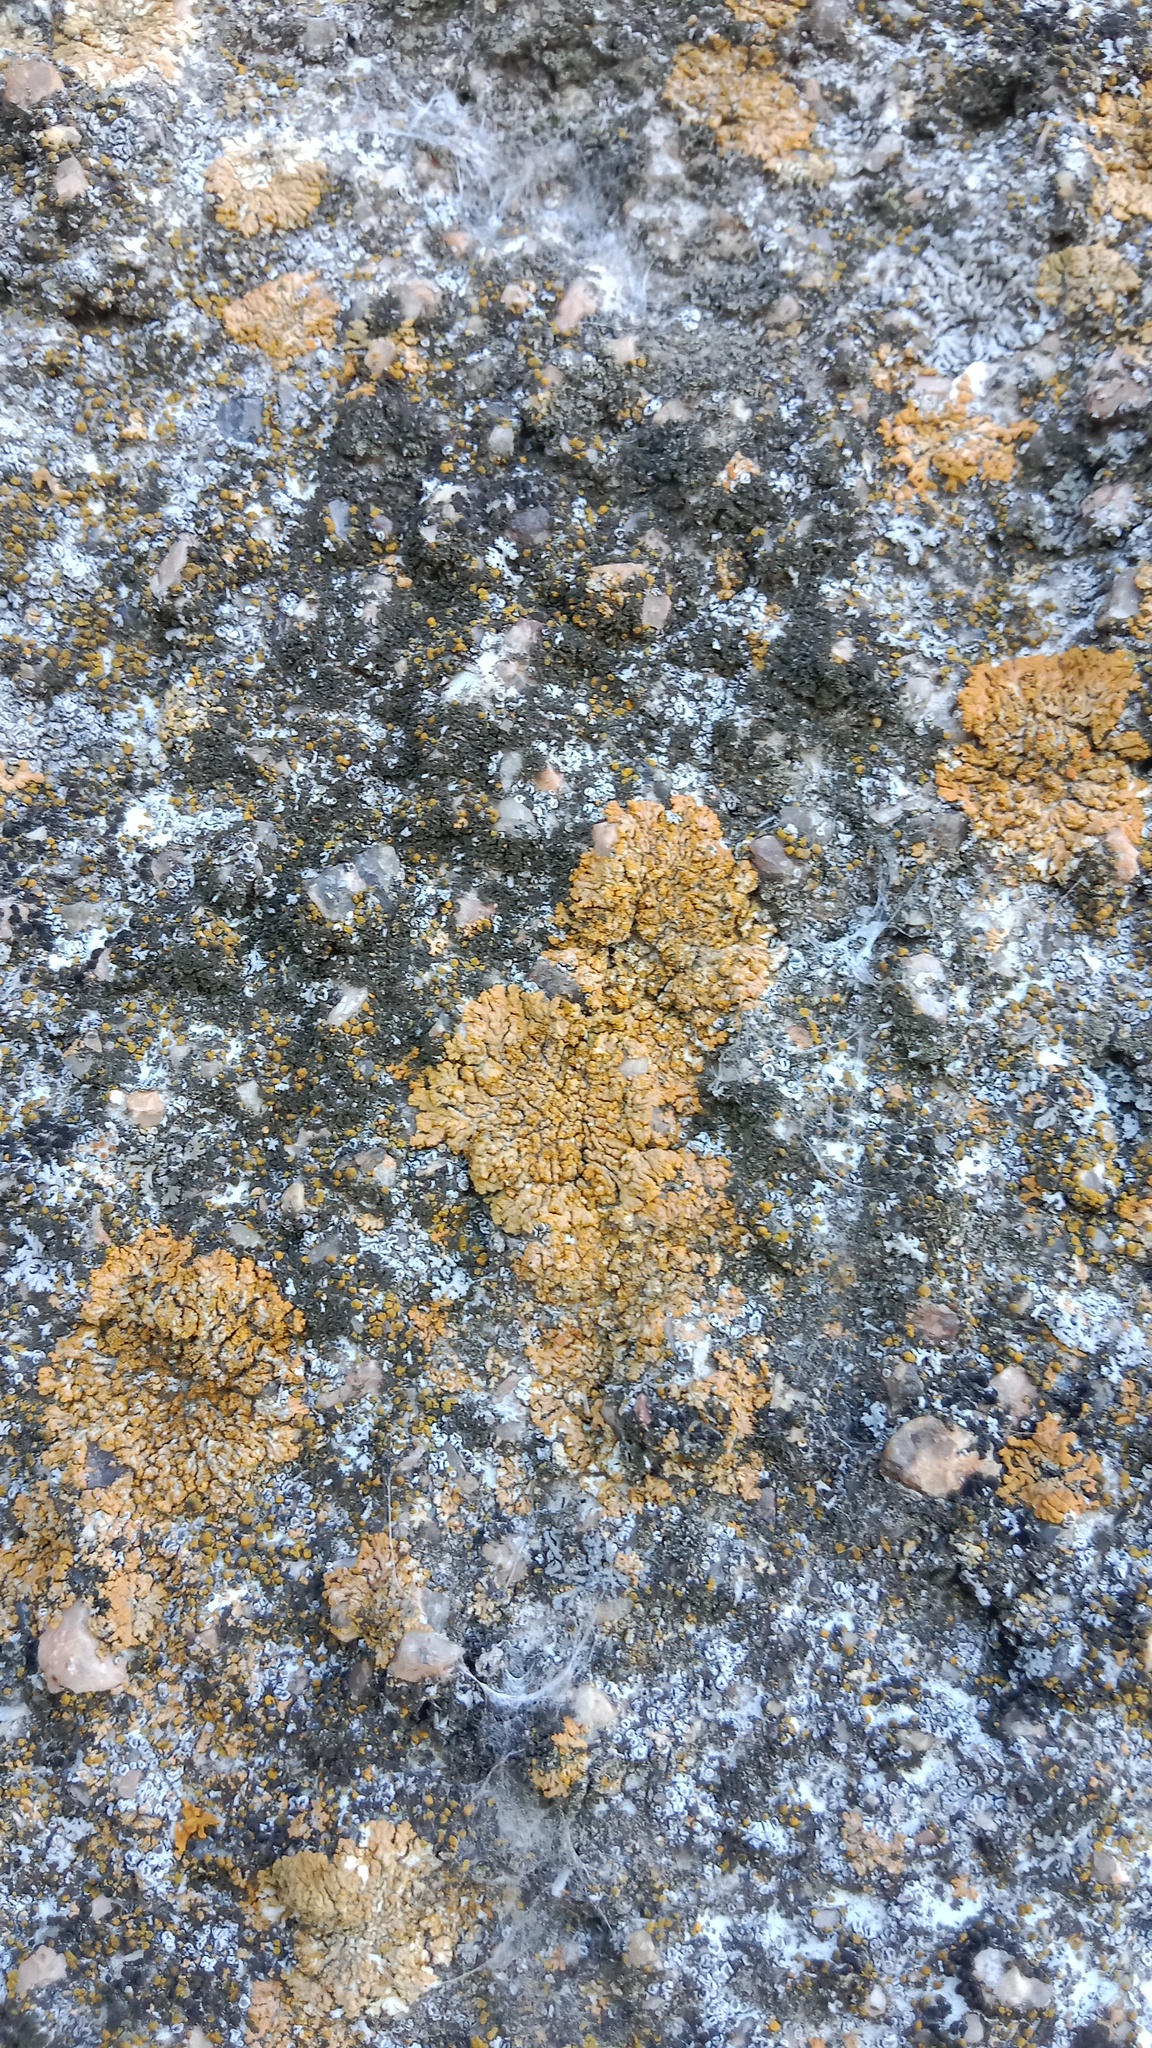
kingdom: Fungi
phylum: Ascomycota
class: Lecanoromycetes
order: Teloschistales
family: Teloschistaceae
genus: Calogaya
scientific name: Calogaya decipiens
